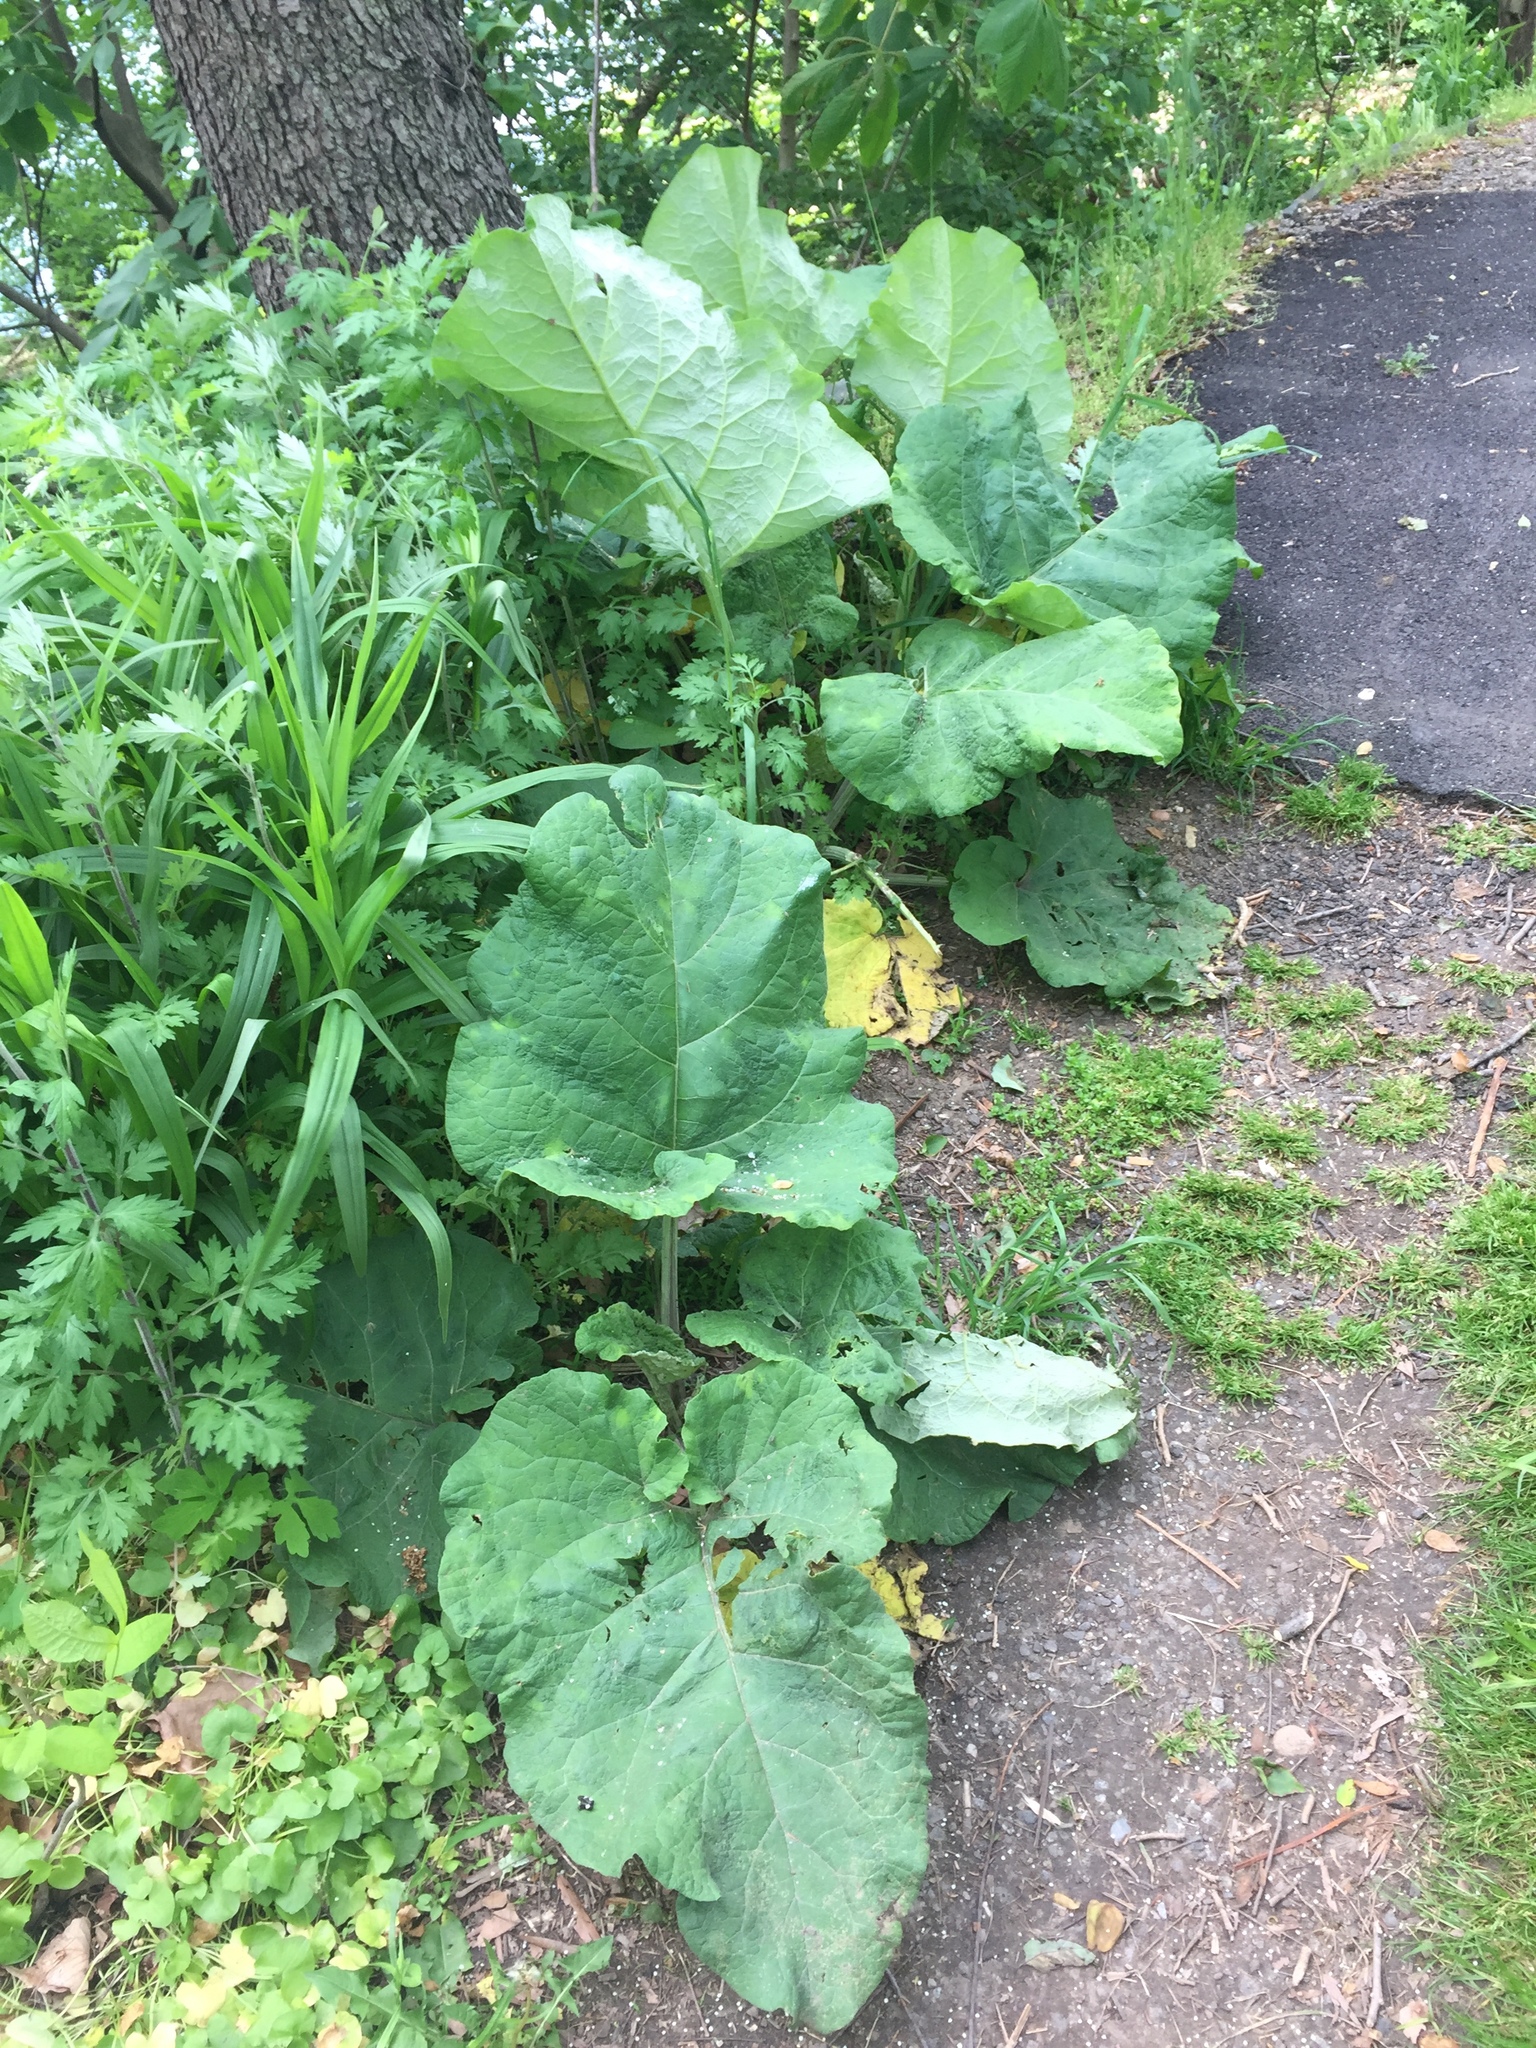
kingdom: Plantae
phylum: Tracheophyta
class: Magnoliopsida
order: Asterales
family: Asteraceae
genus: Arctium
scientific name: Arctium
